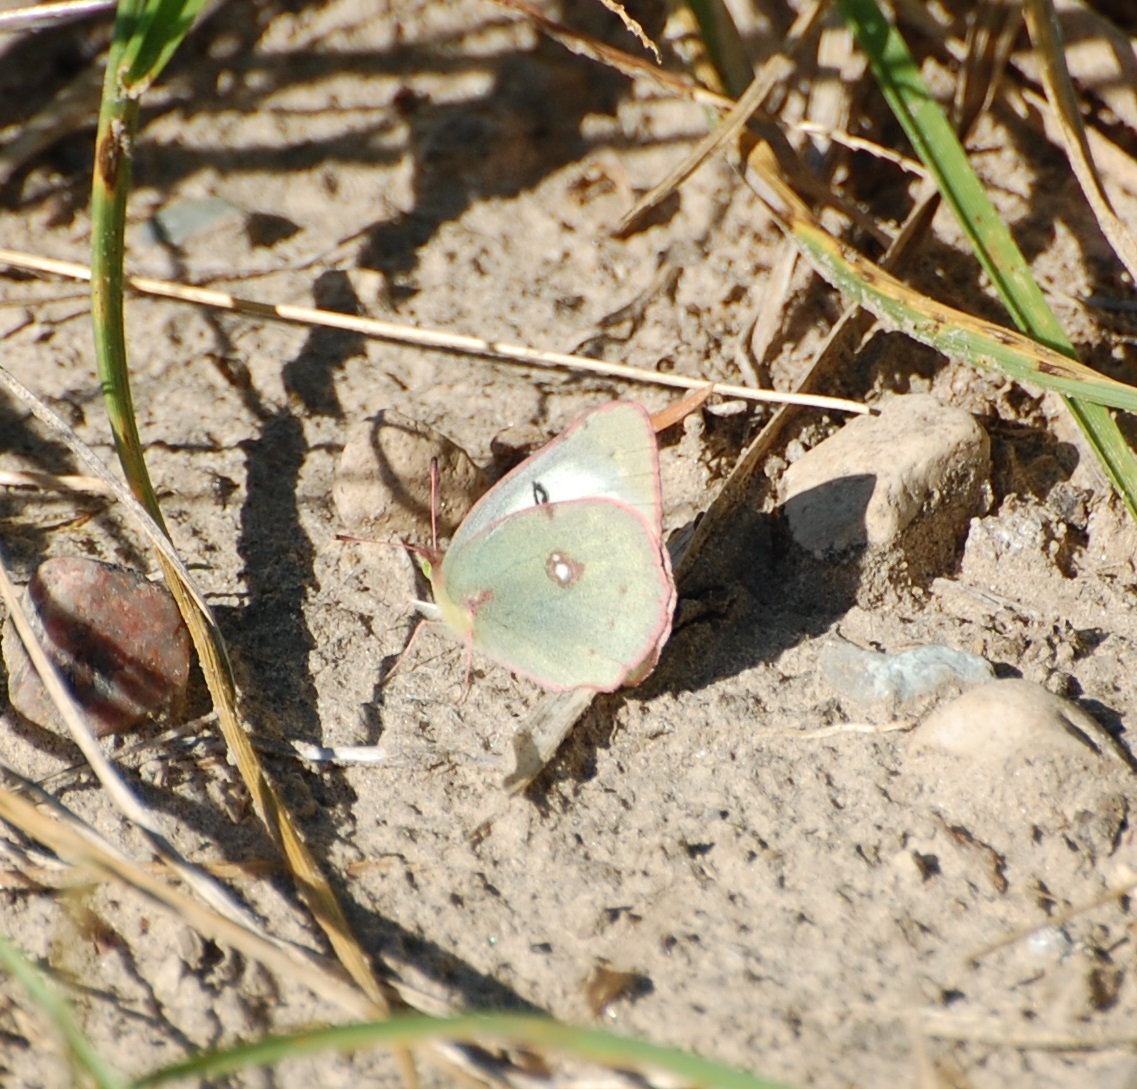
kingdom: Animalia
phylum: Arthropoda
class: Insecta
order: Lepidoptera
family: Pieridae
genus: Colias
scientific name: Colias philodice
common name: Clouded sulphur
